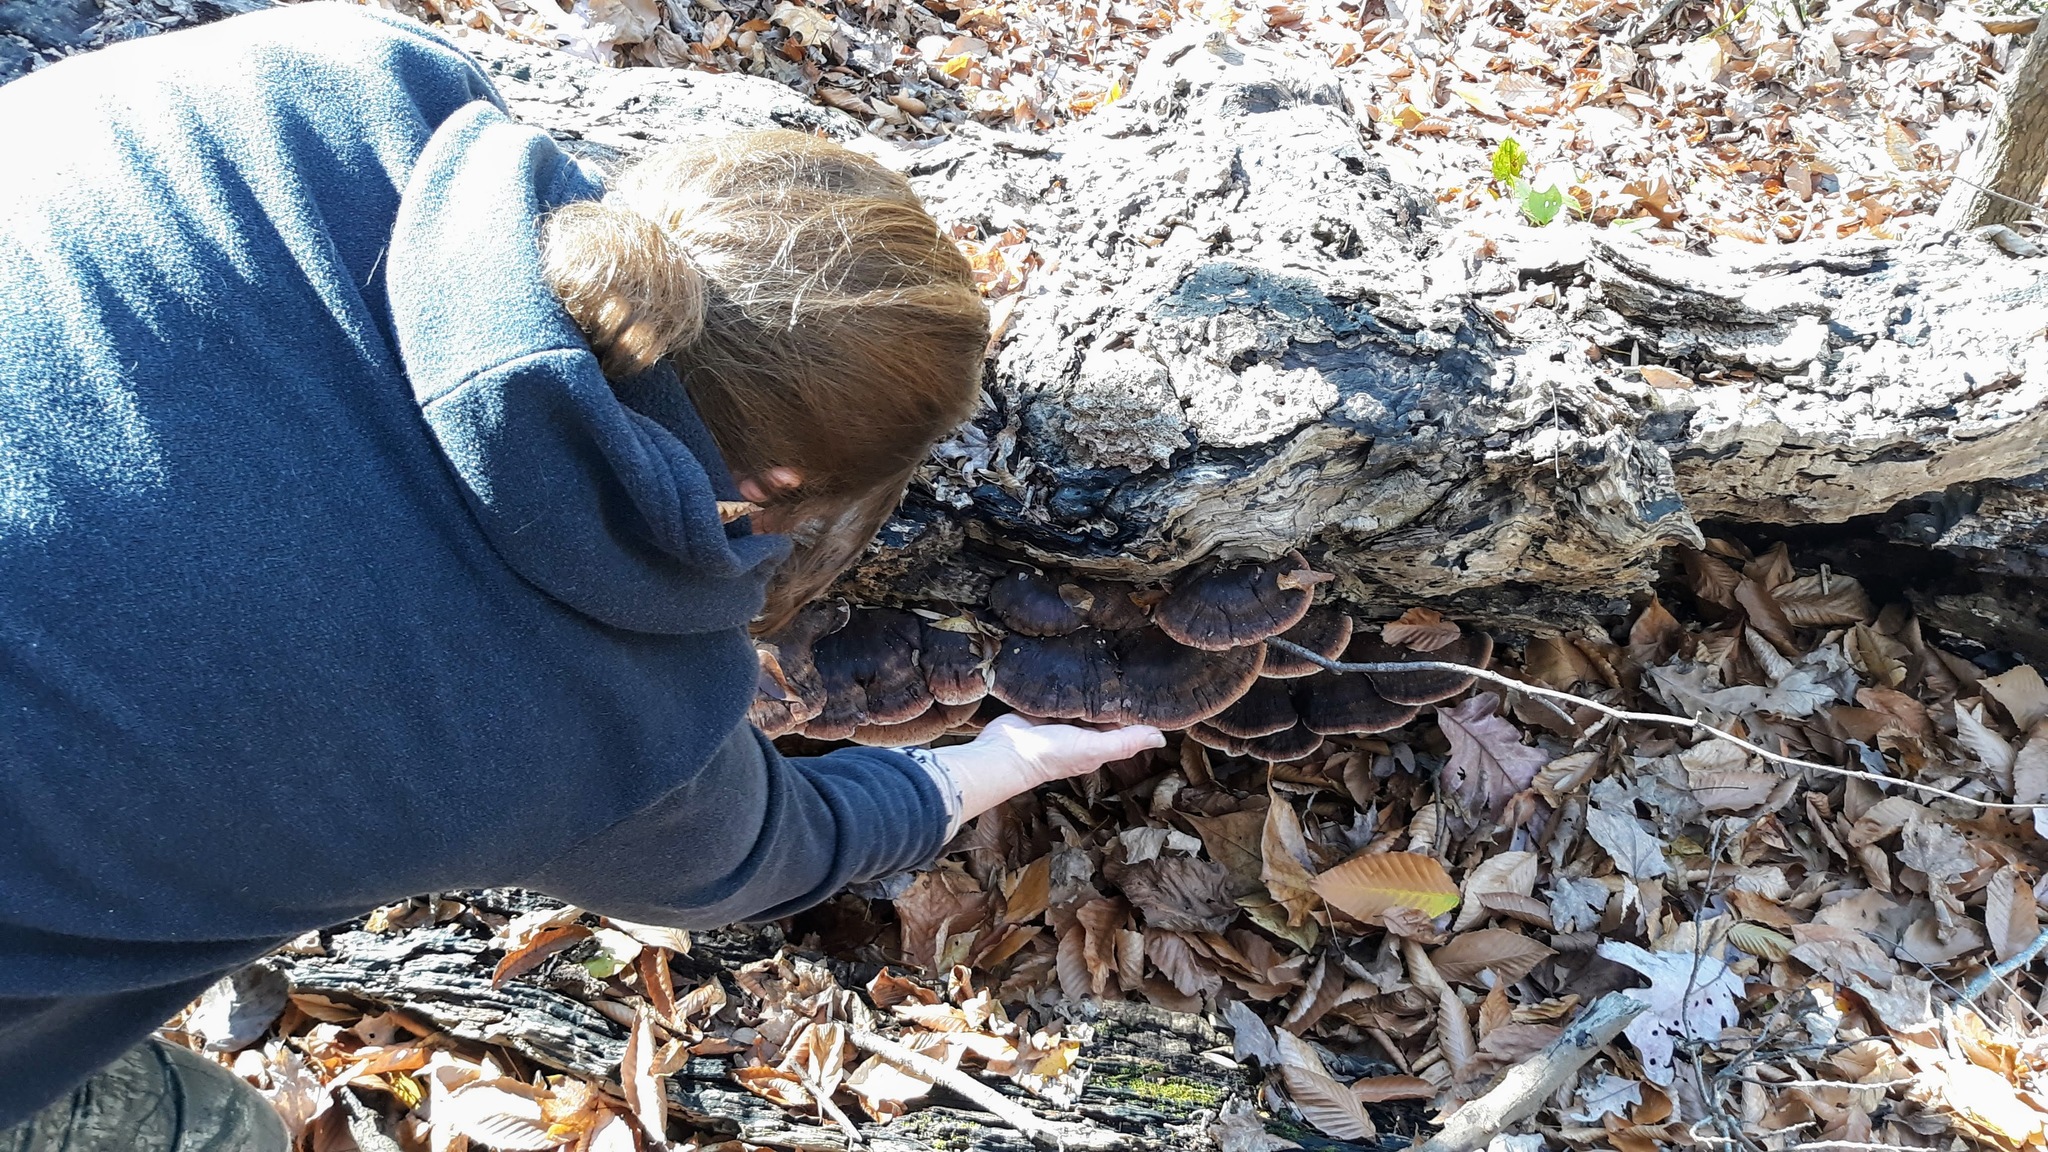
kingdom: Fungi
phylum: Basidiomycota
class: Agaricomycetes
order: Polyporales
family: Ischnodermataceae
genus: Ischnoderma
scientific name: Ischnoderma resinosum
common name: Resinous polypore
